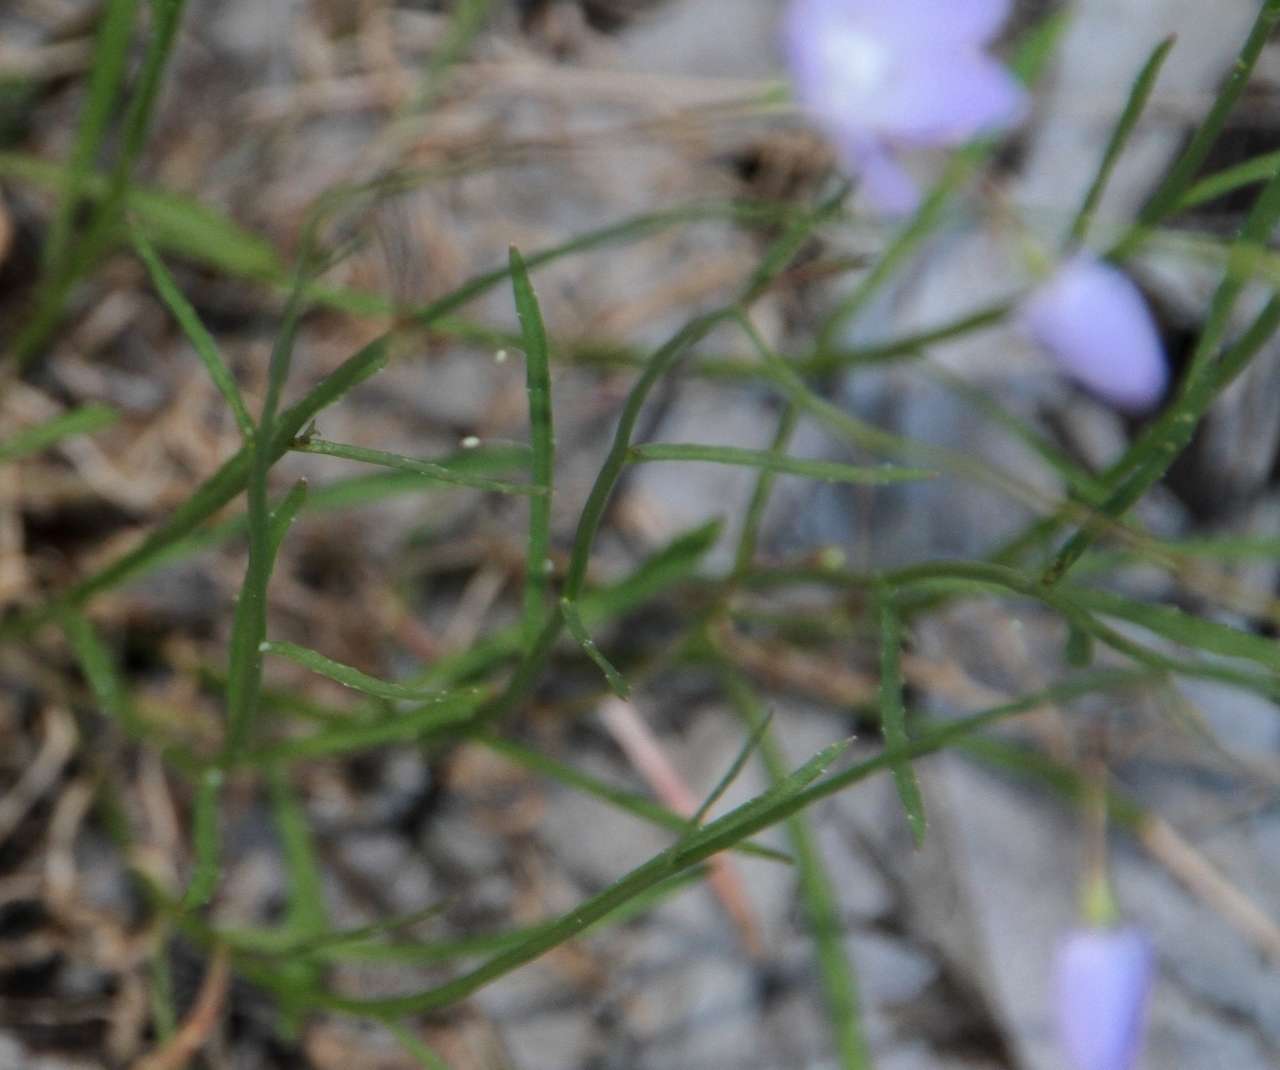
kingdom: Plantae
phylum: Tracheophyta
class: Magnoliopsida
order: Asterales
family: Campanulaceae
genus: Wahlenbergia
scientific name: Wahlenbergia fluminalis
